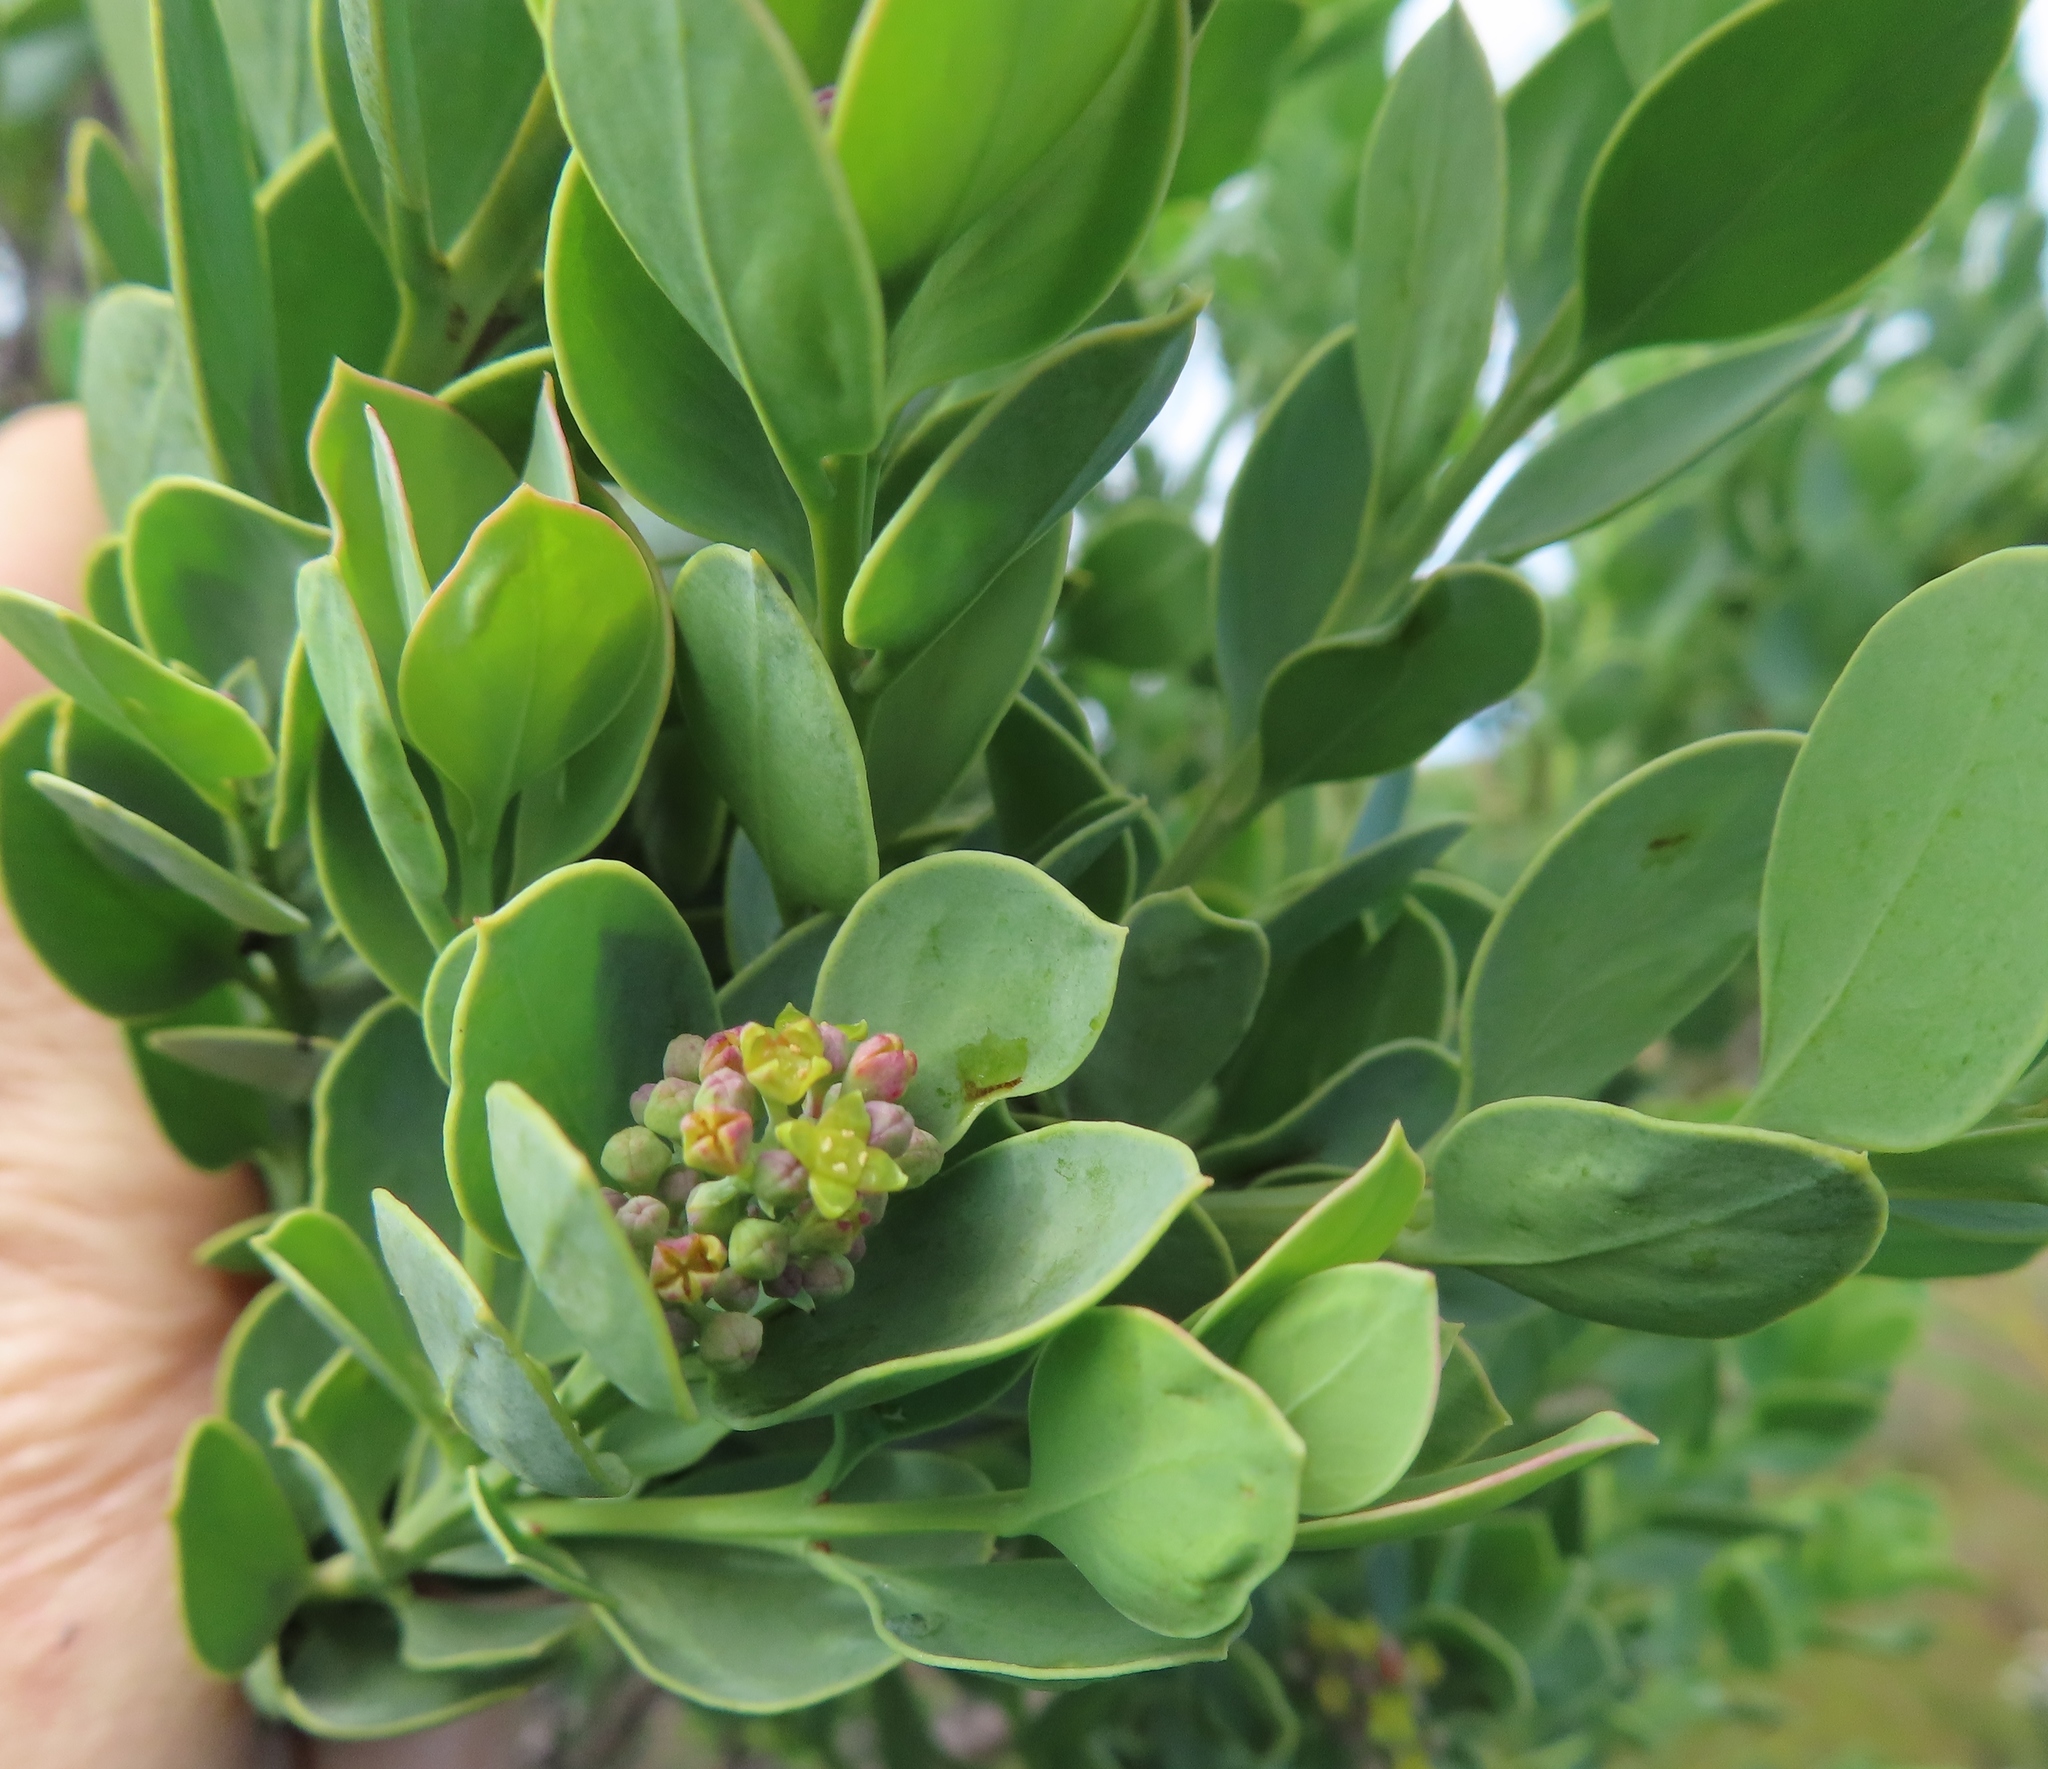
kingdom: Plantae
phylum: Tracheophyta
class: Magnoliopsida
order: Santalales
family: Santalaceae
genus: Osyris
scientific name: Osyris compressa
